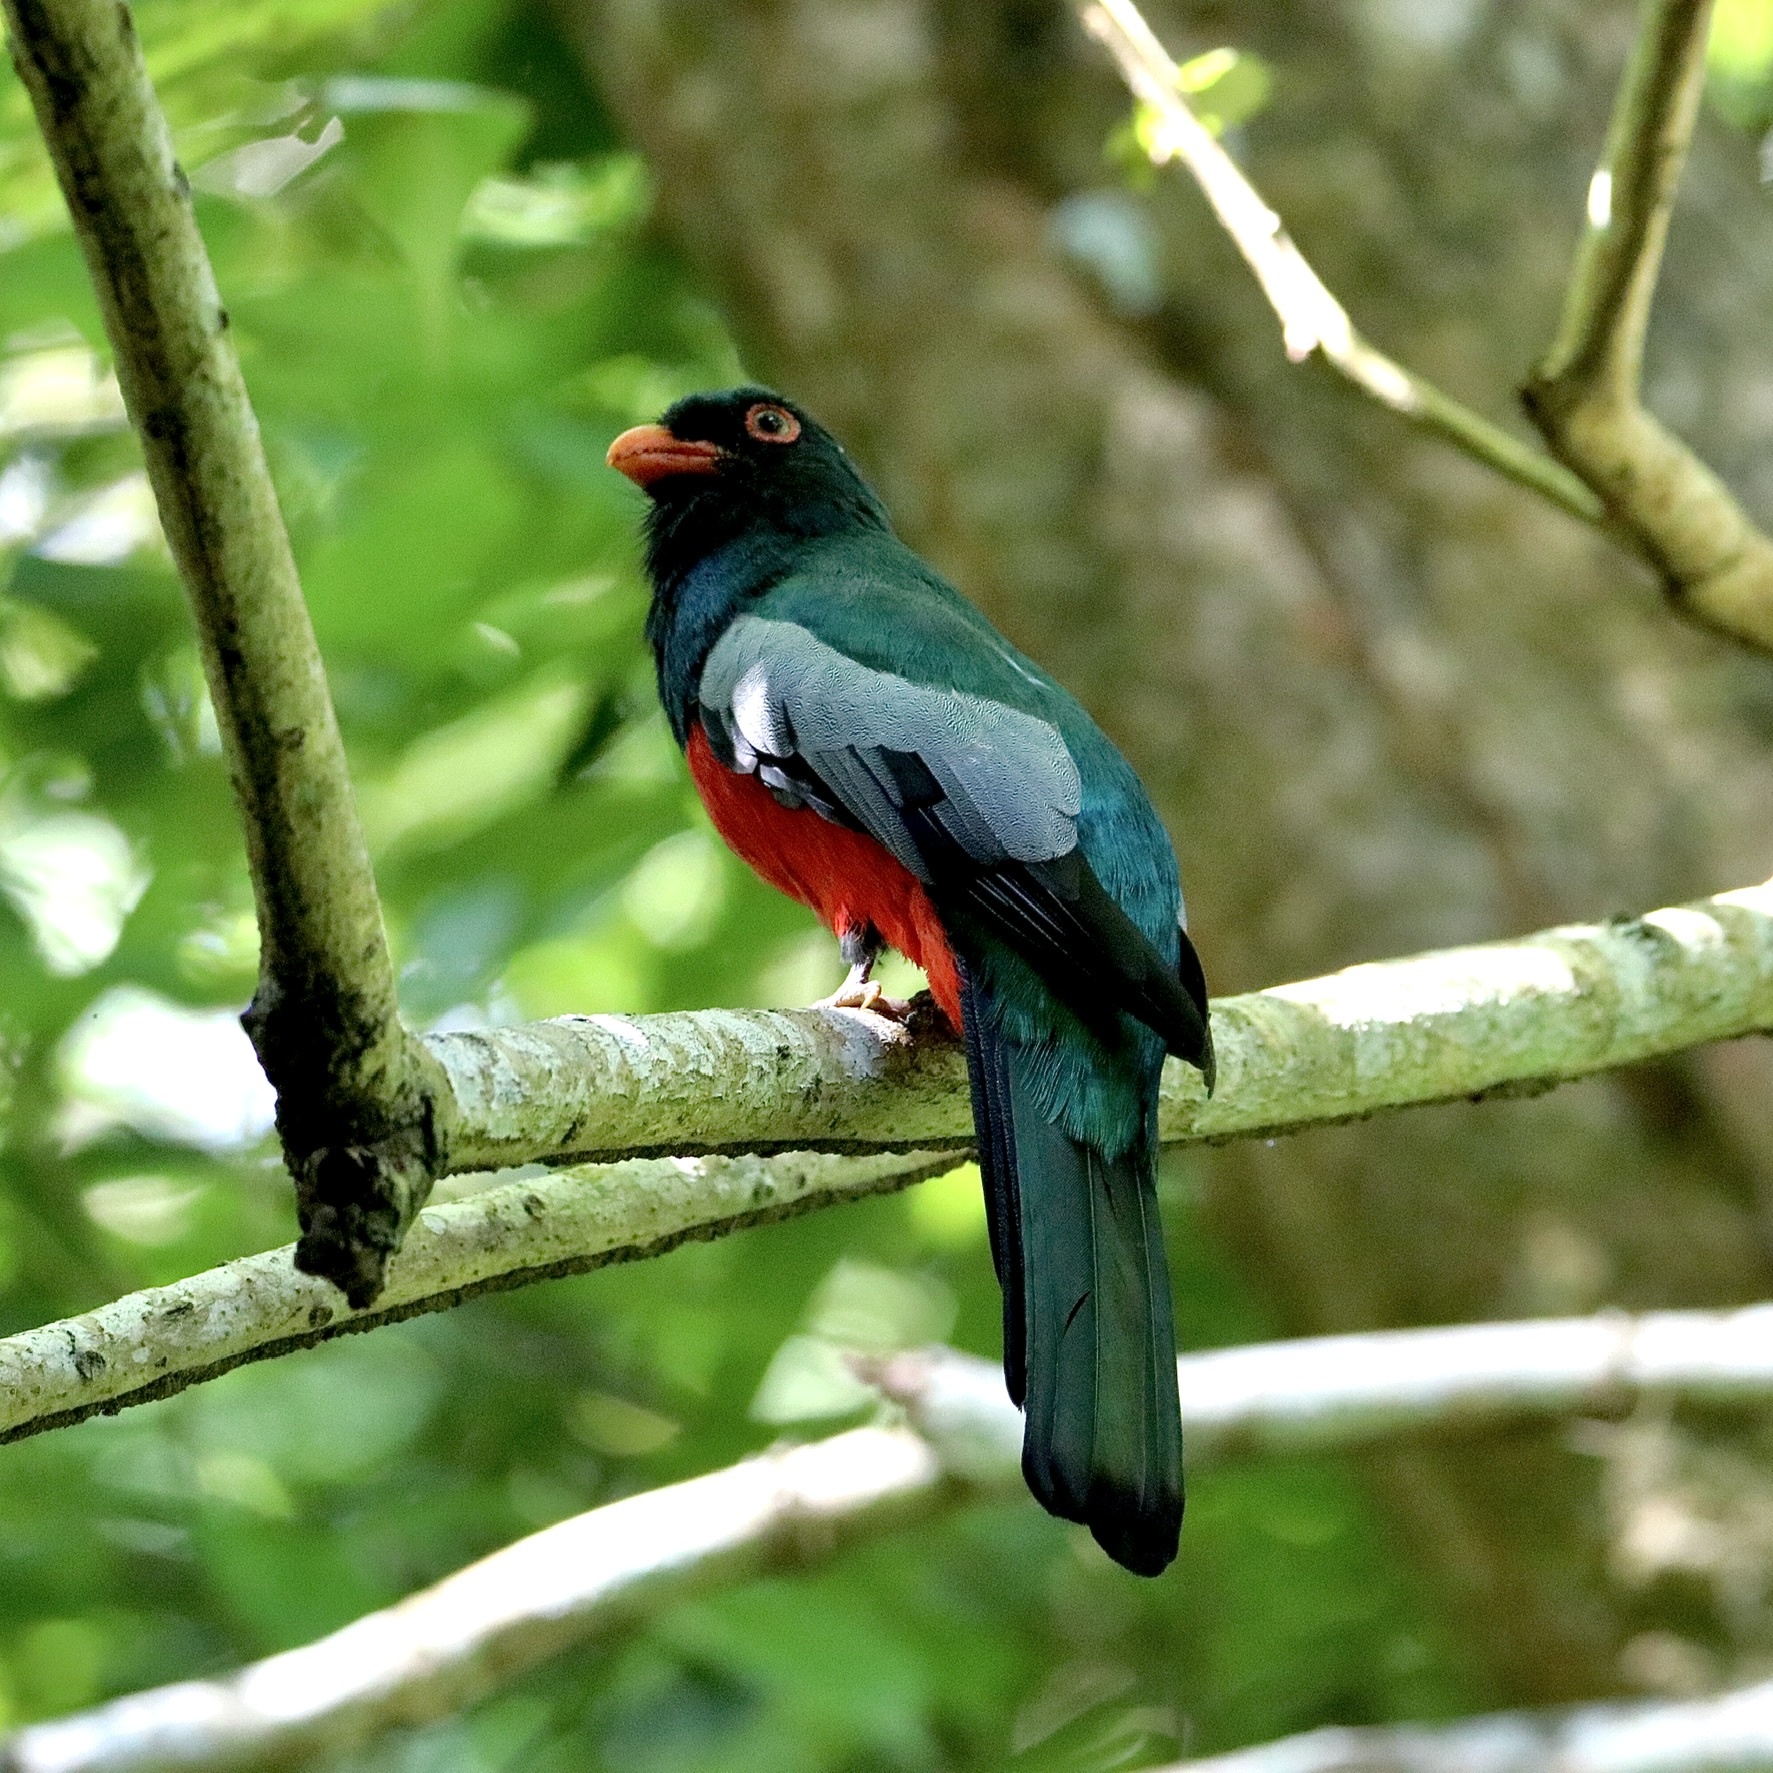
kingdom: Animalia
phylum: Chordata
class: Aves
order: Trogoniformes
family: Trogonidae
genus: Trogon
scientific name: Trogon massena
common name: Slaty-tailed trogon
